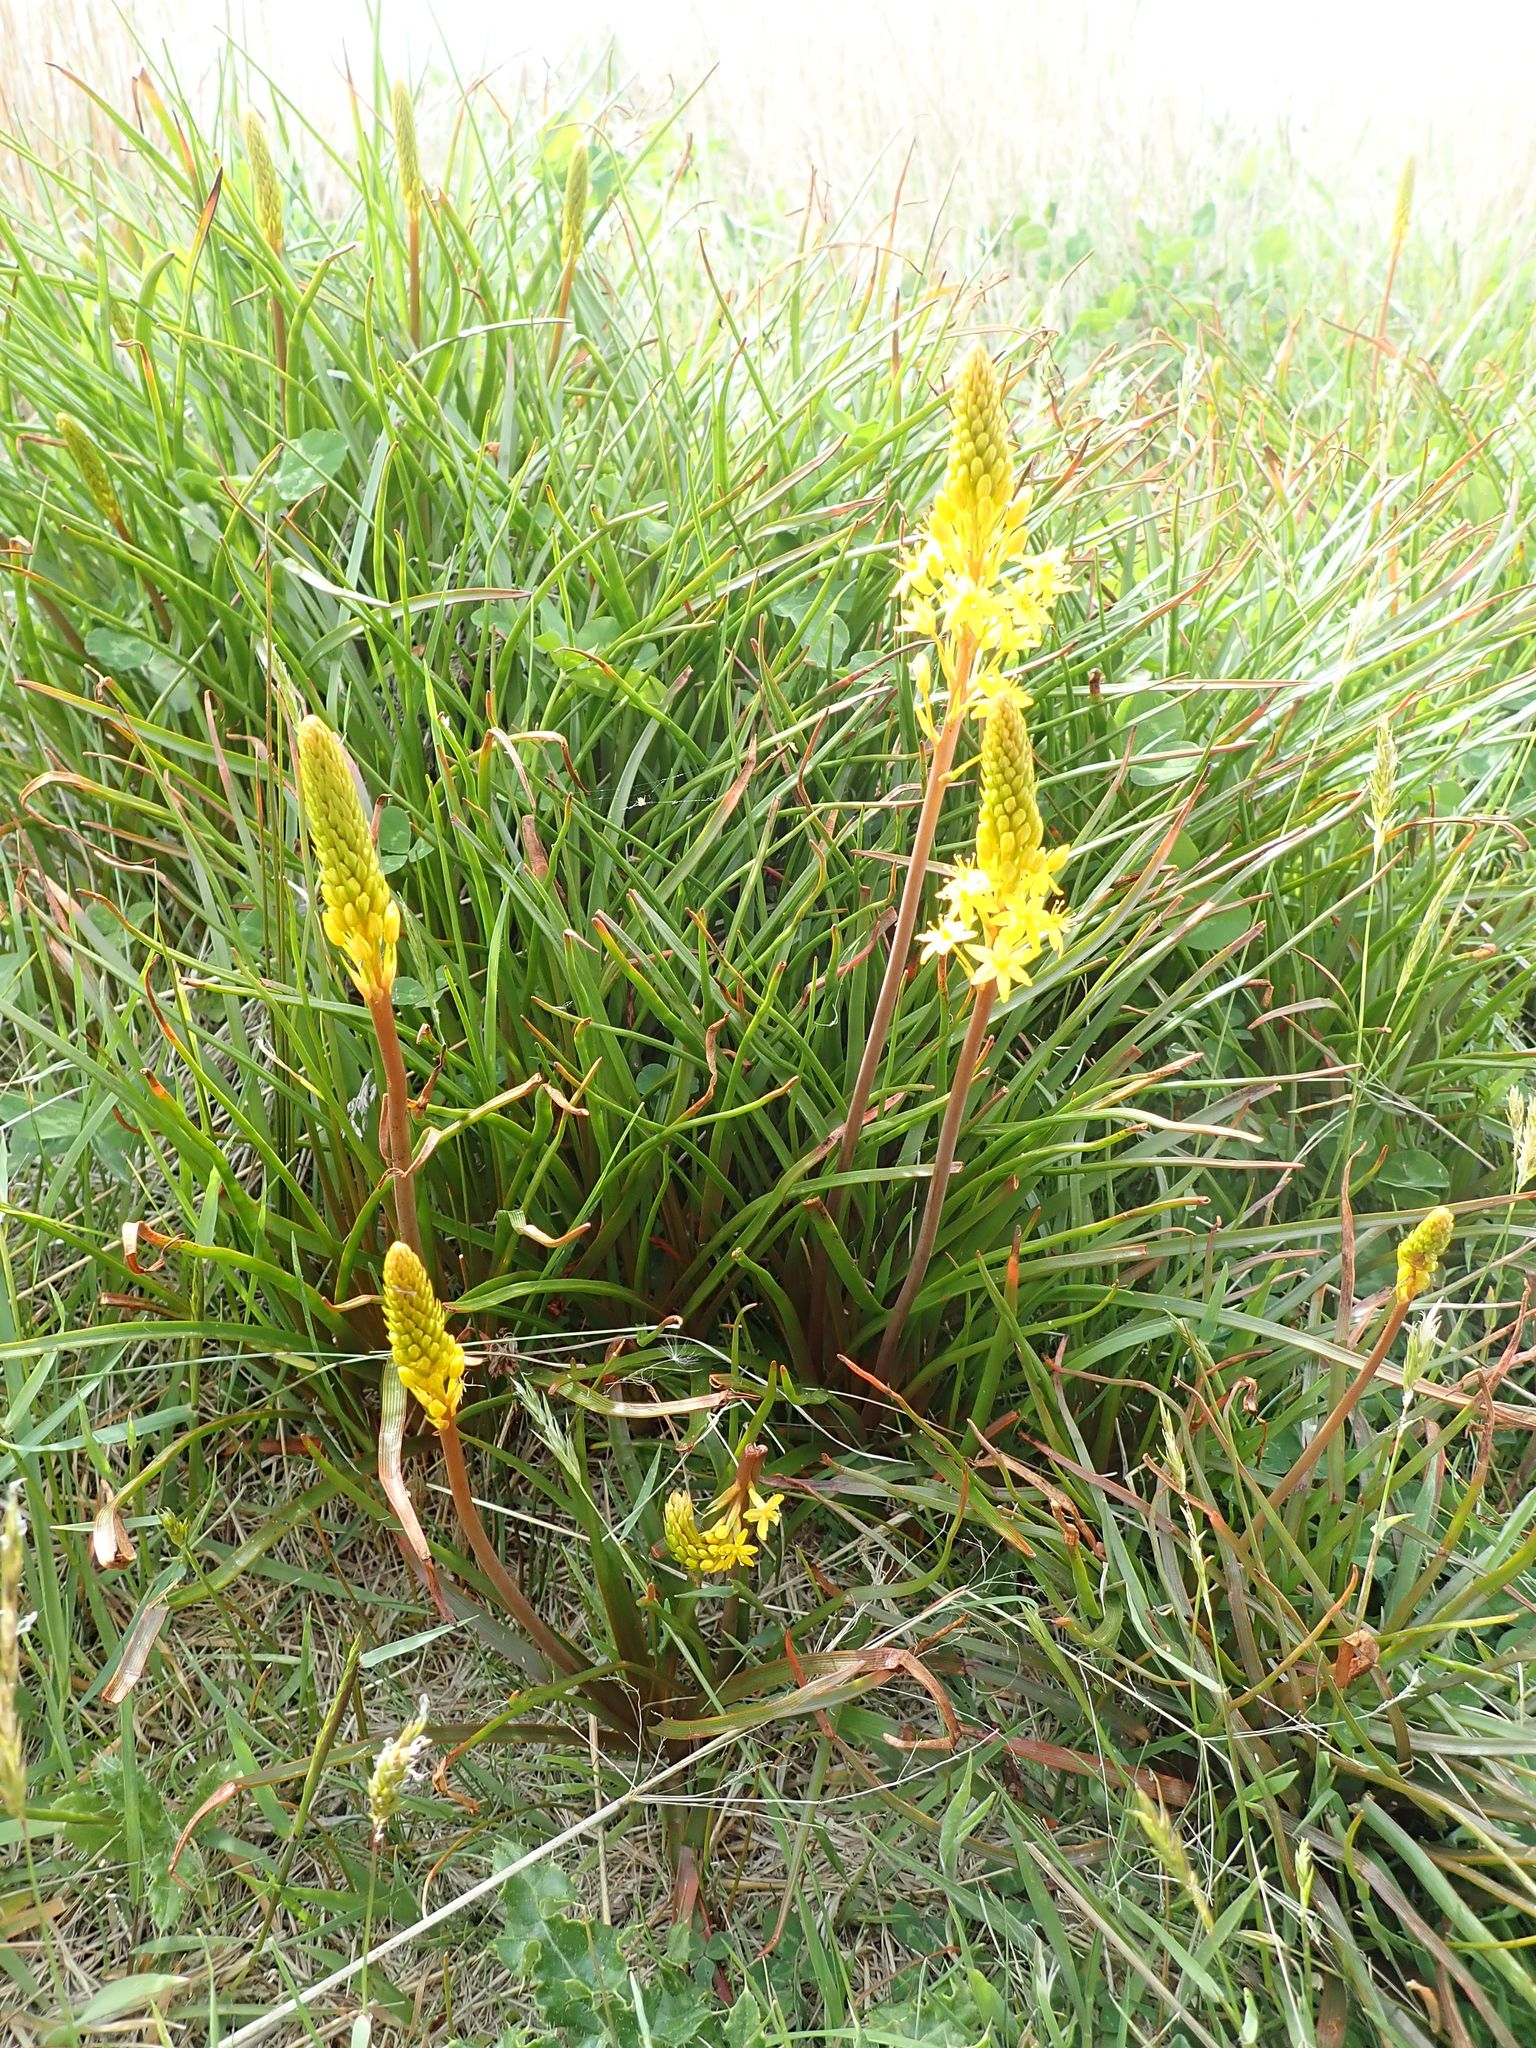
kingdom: Plantae
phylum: Tracheophyta
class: Liliopsida
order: Asparagales
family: Asphodelaceae
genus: Bulbinella
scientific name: Bulbinella angustifolia
